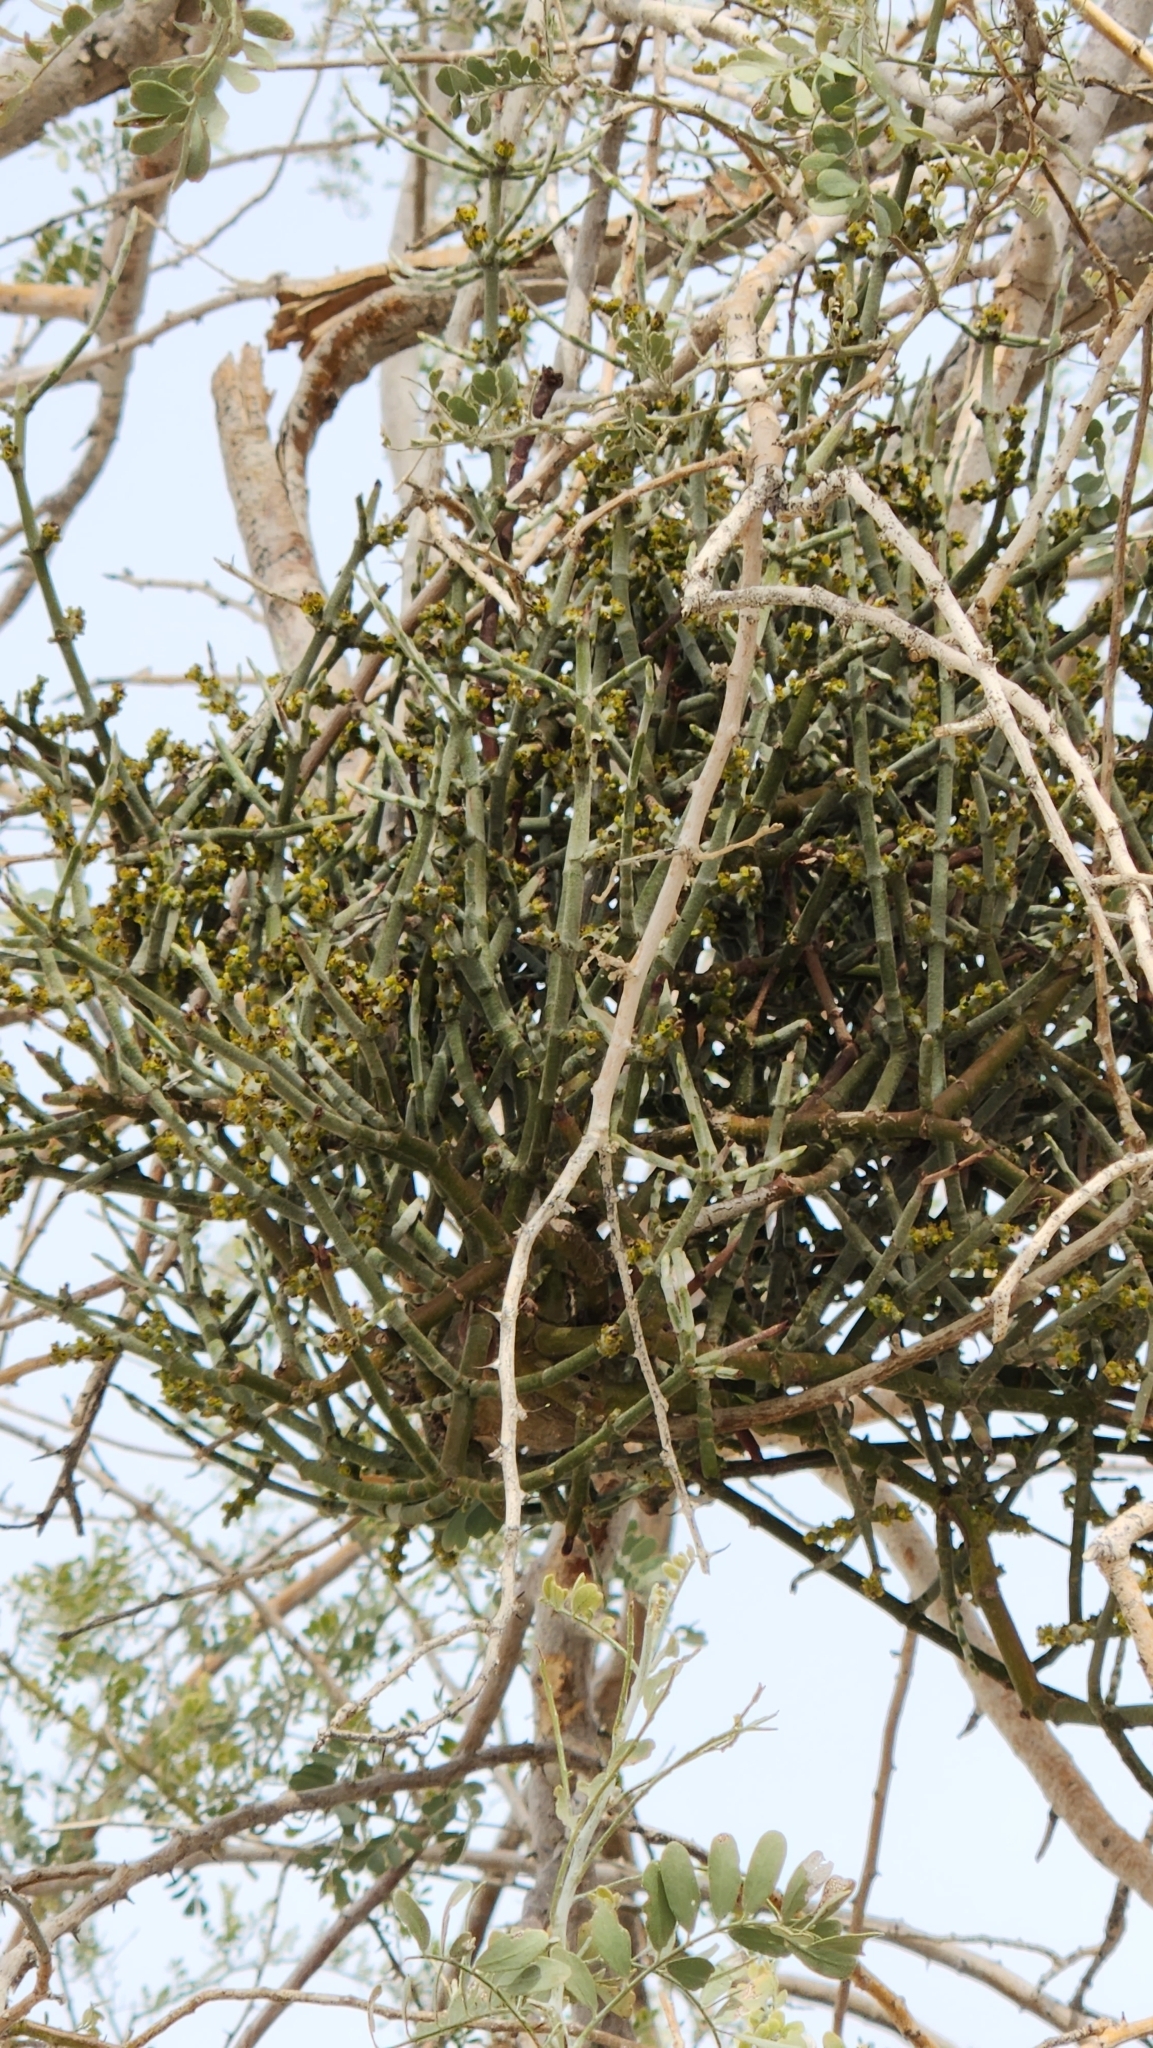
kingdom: Plantae
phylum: Tracheophyta
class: Magnoliopsida
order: Santalales
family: Viscaceae
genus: Phoradendron
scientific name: Phoradendron californicum
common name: Acacia mistletoe
